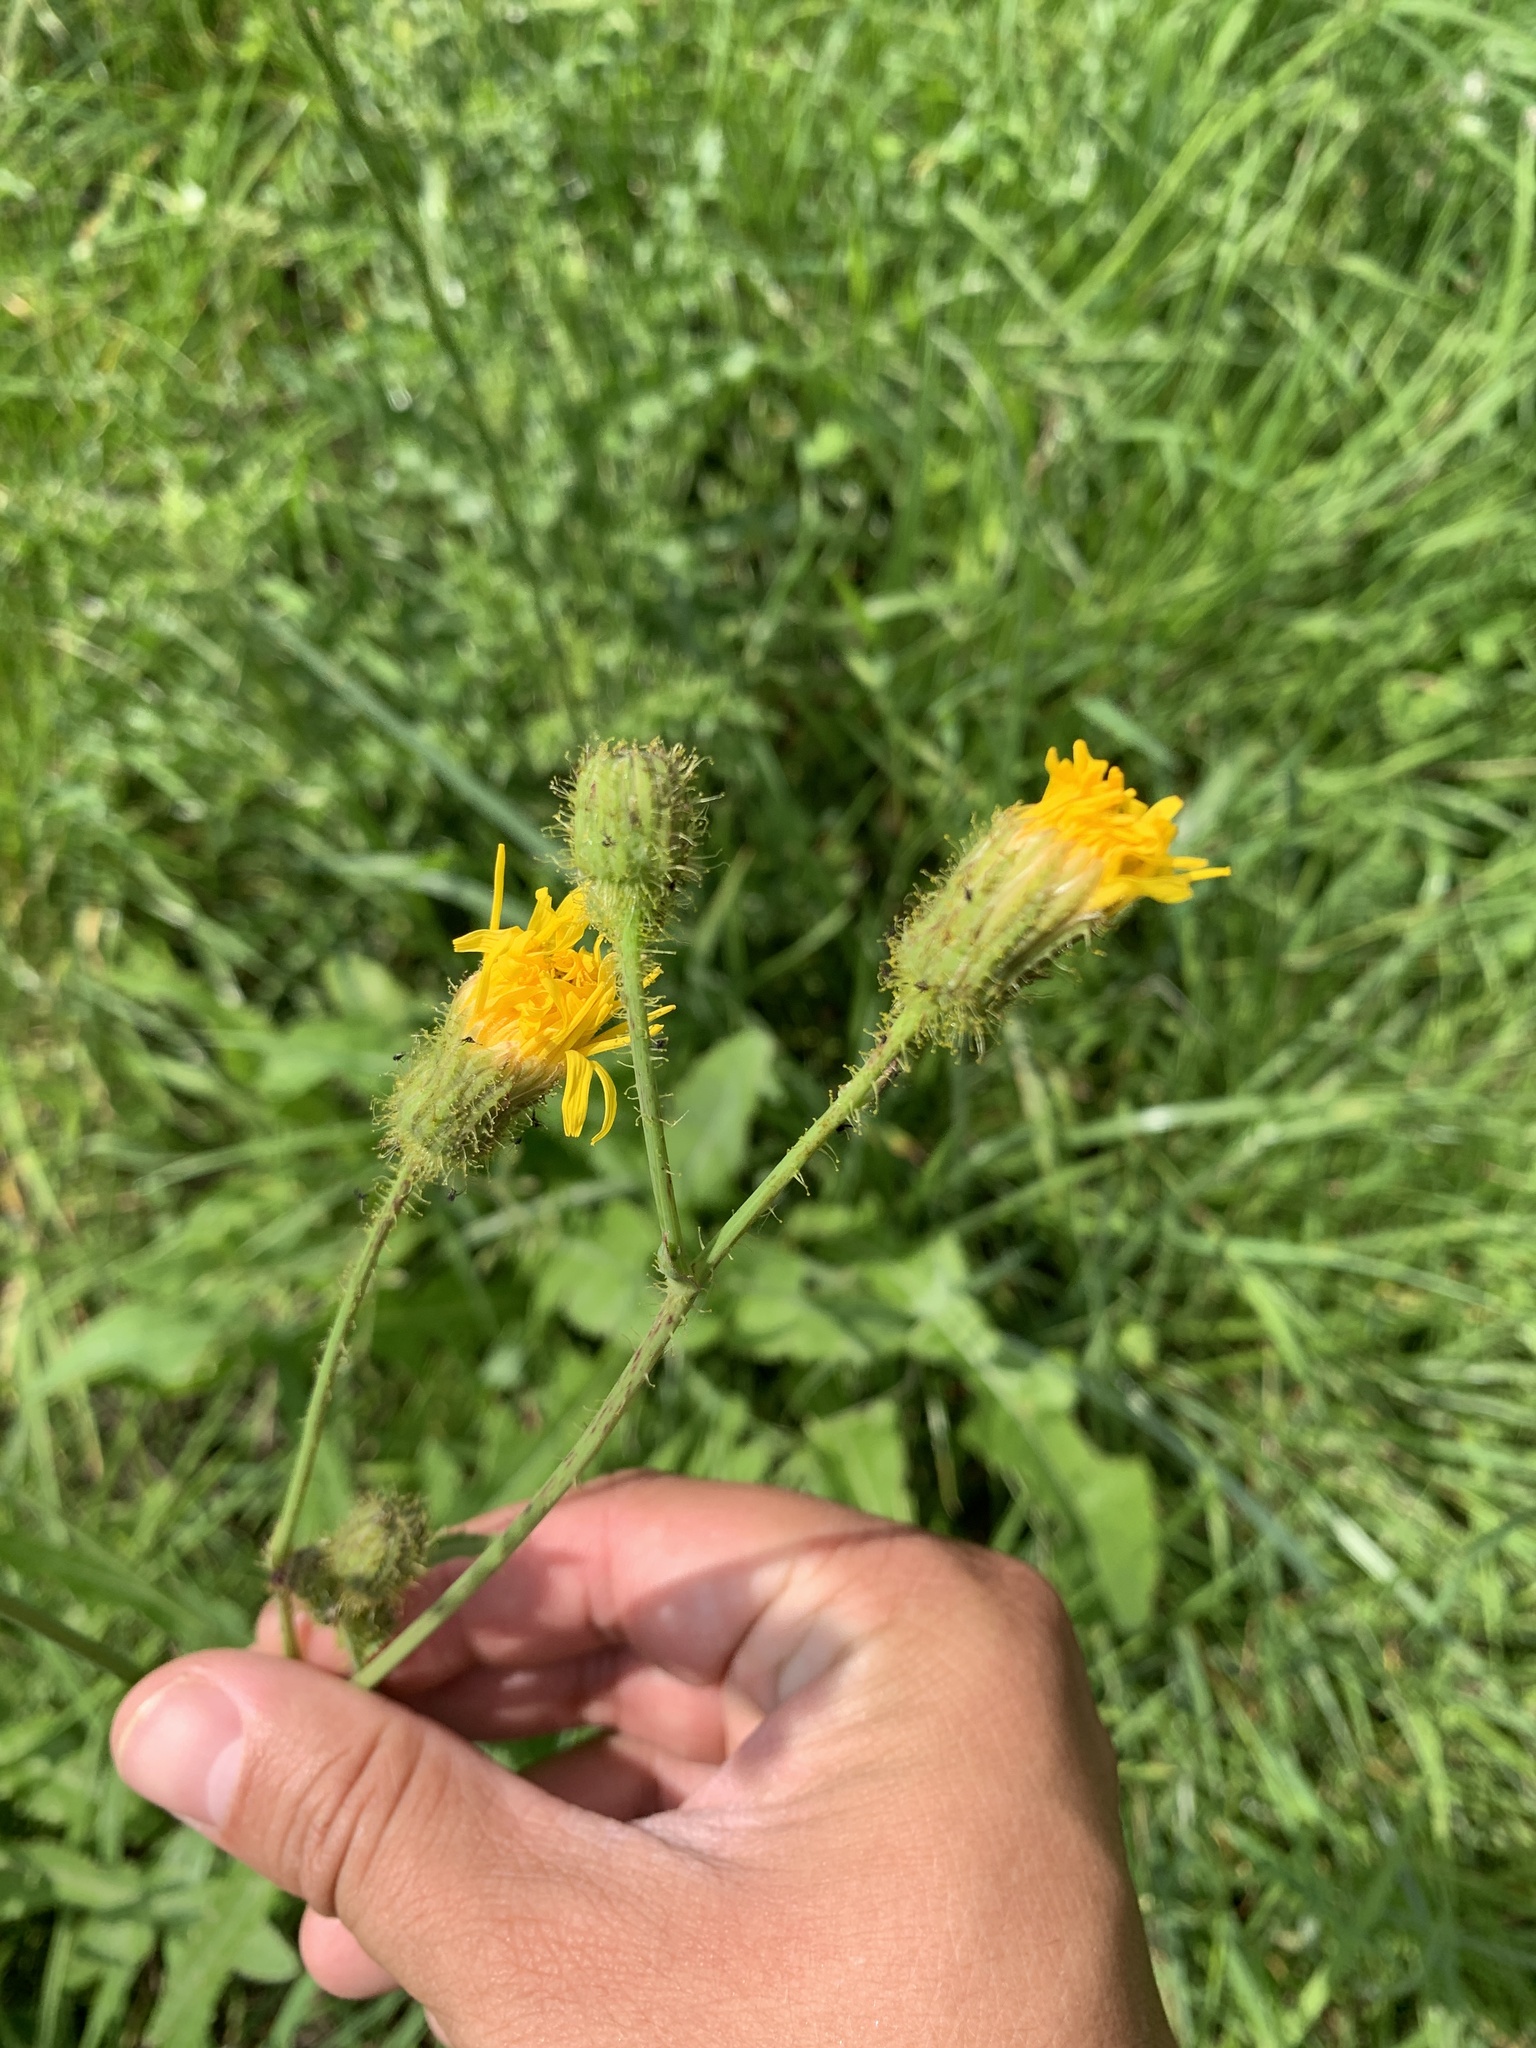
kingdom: Plantae
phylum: Tracheophyta
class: Magnoliopsida
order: Asterales
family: Asteraceae
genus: Sonchus
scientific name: Sonchus arvensis
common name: Perennial sow-thistle
